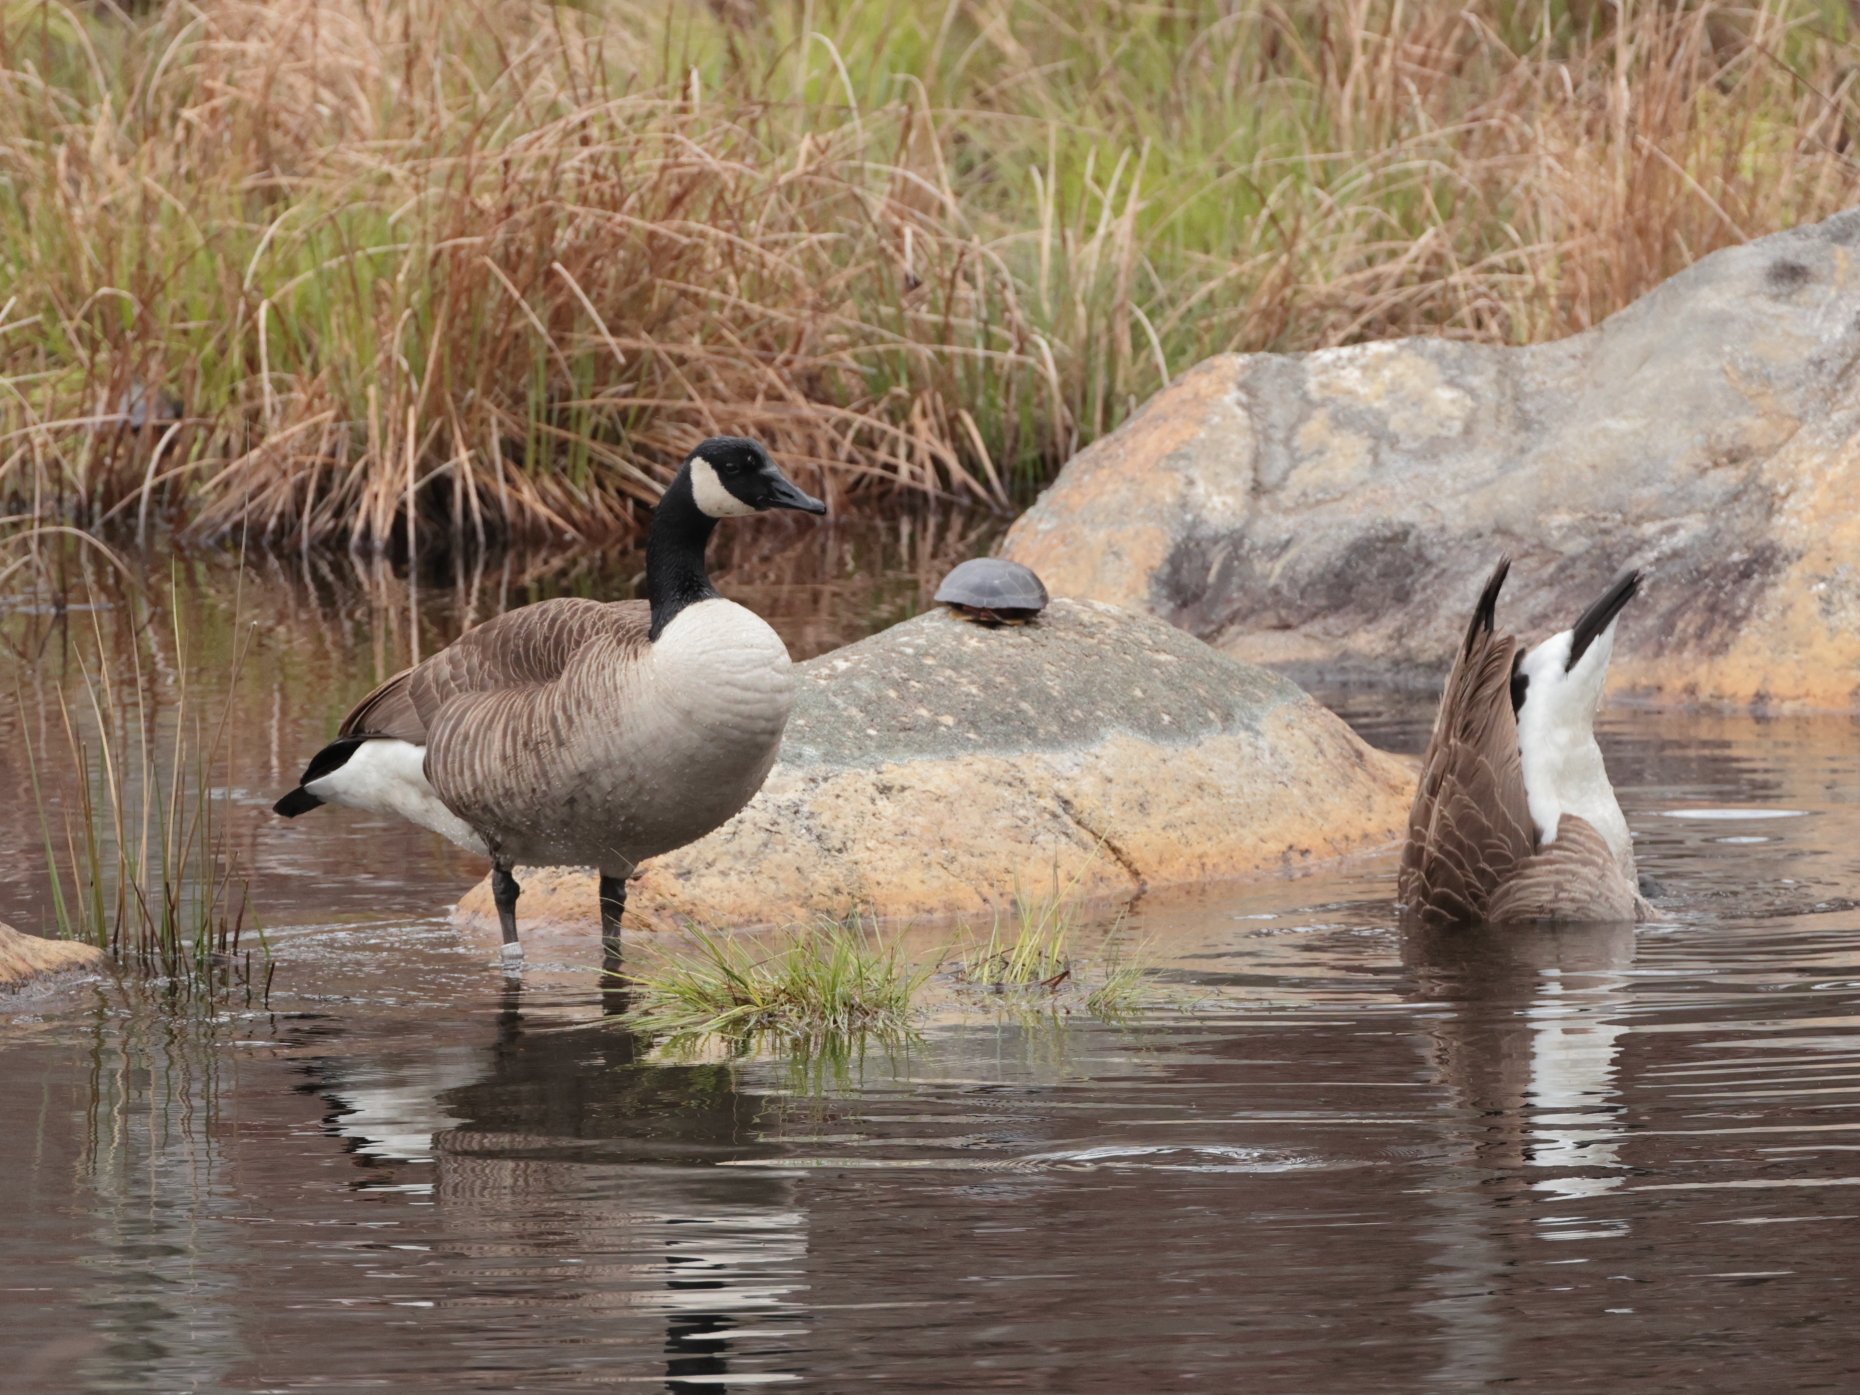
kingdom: Animalia
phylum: Chordata
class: Aves
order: Anseriformes
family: Anatidae
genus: Branta
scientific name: Branta canadensis
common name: Canada goose
